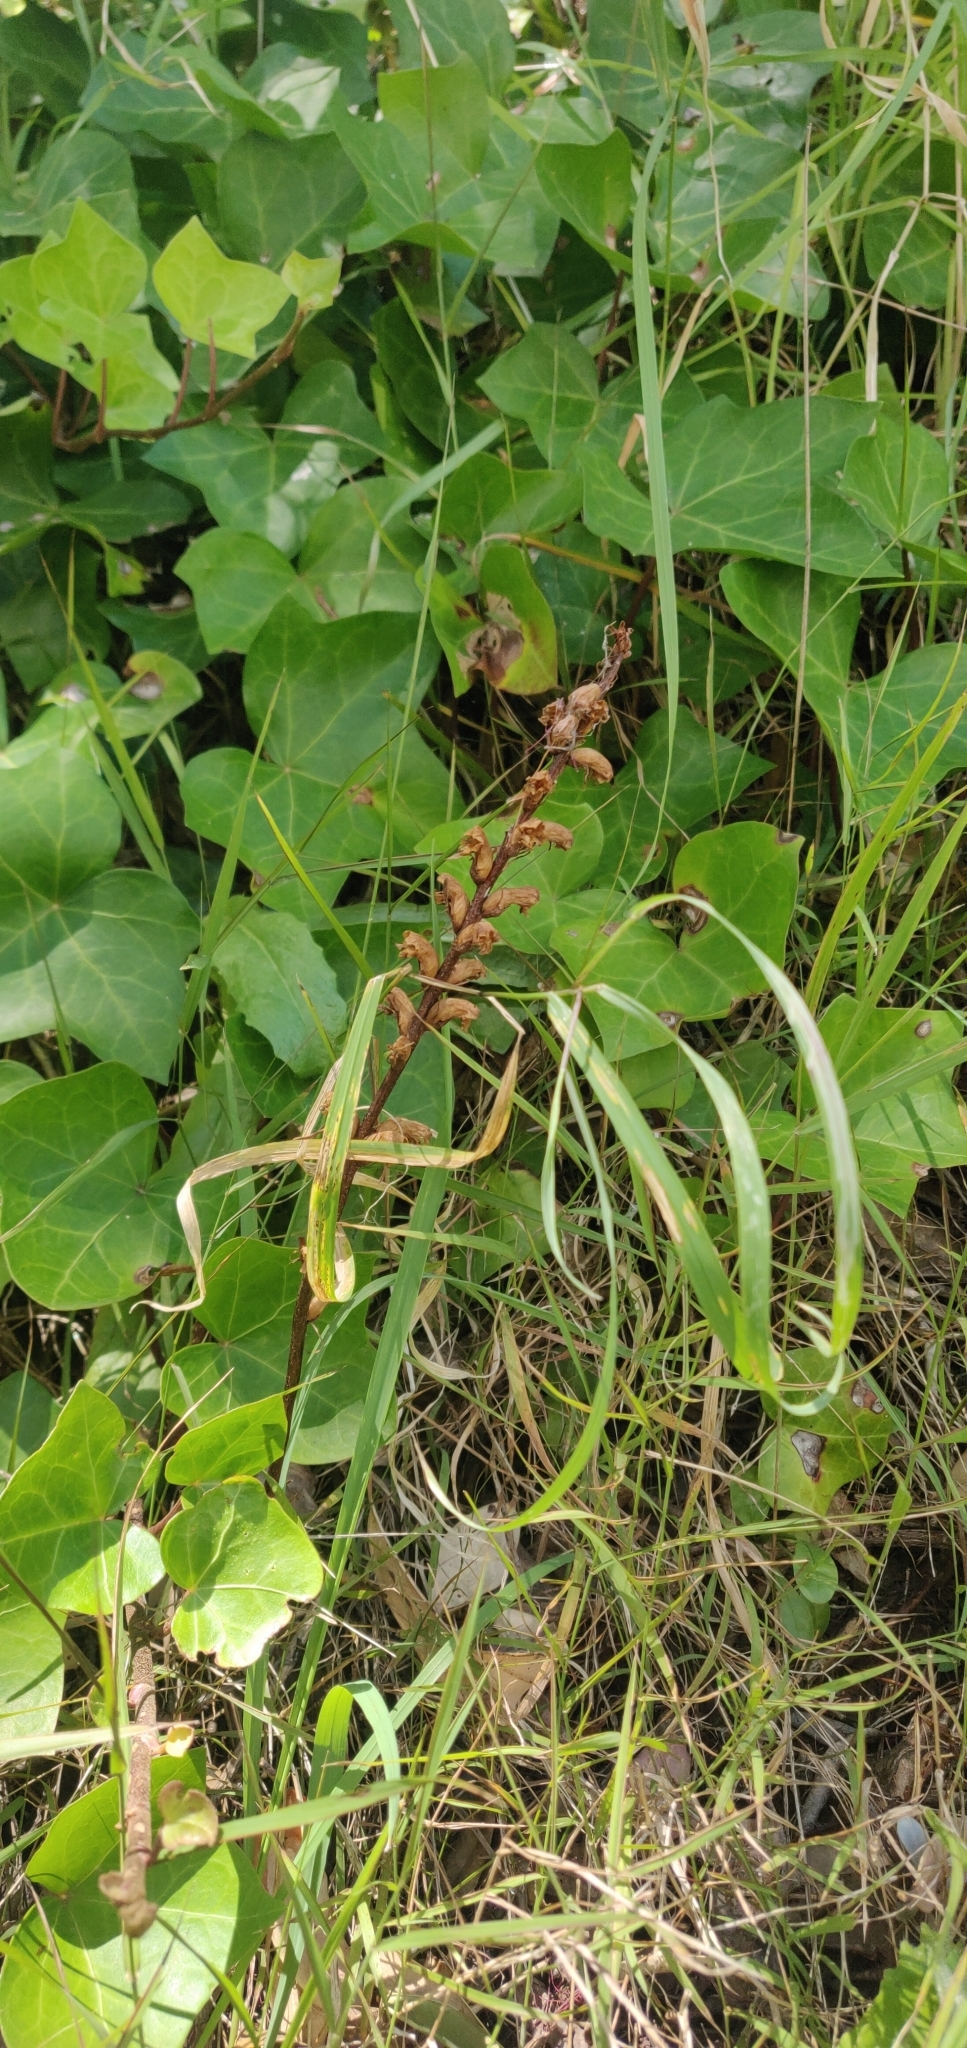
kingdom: Plantae
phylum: Tracheophyta
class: Magnoliopsida
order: Lamiales
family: Orobanchaceae
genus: Orobanche
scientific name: Orobanche minor
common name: Common broomrape
